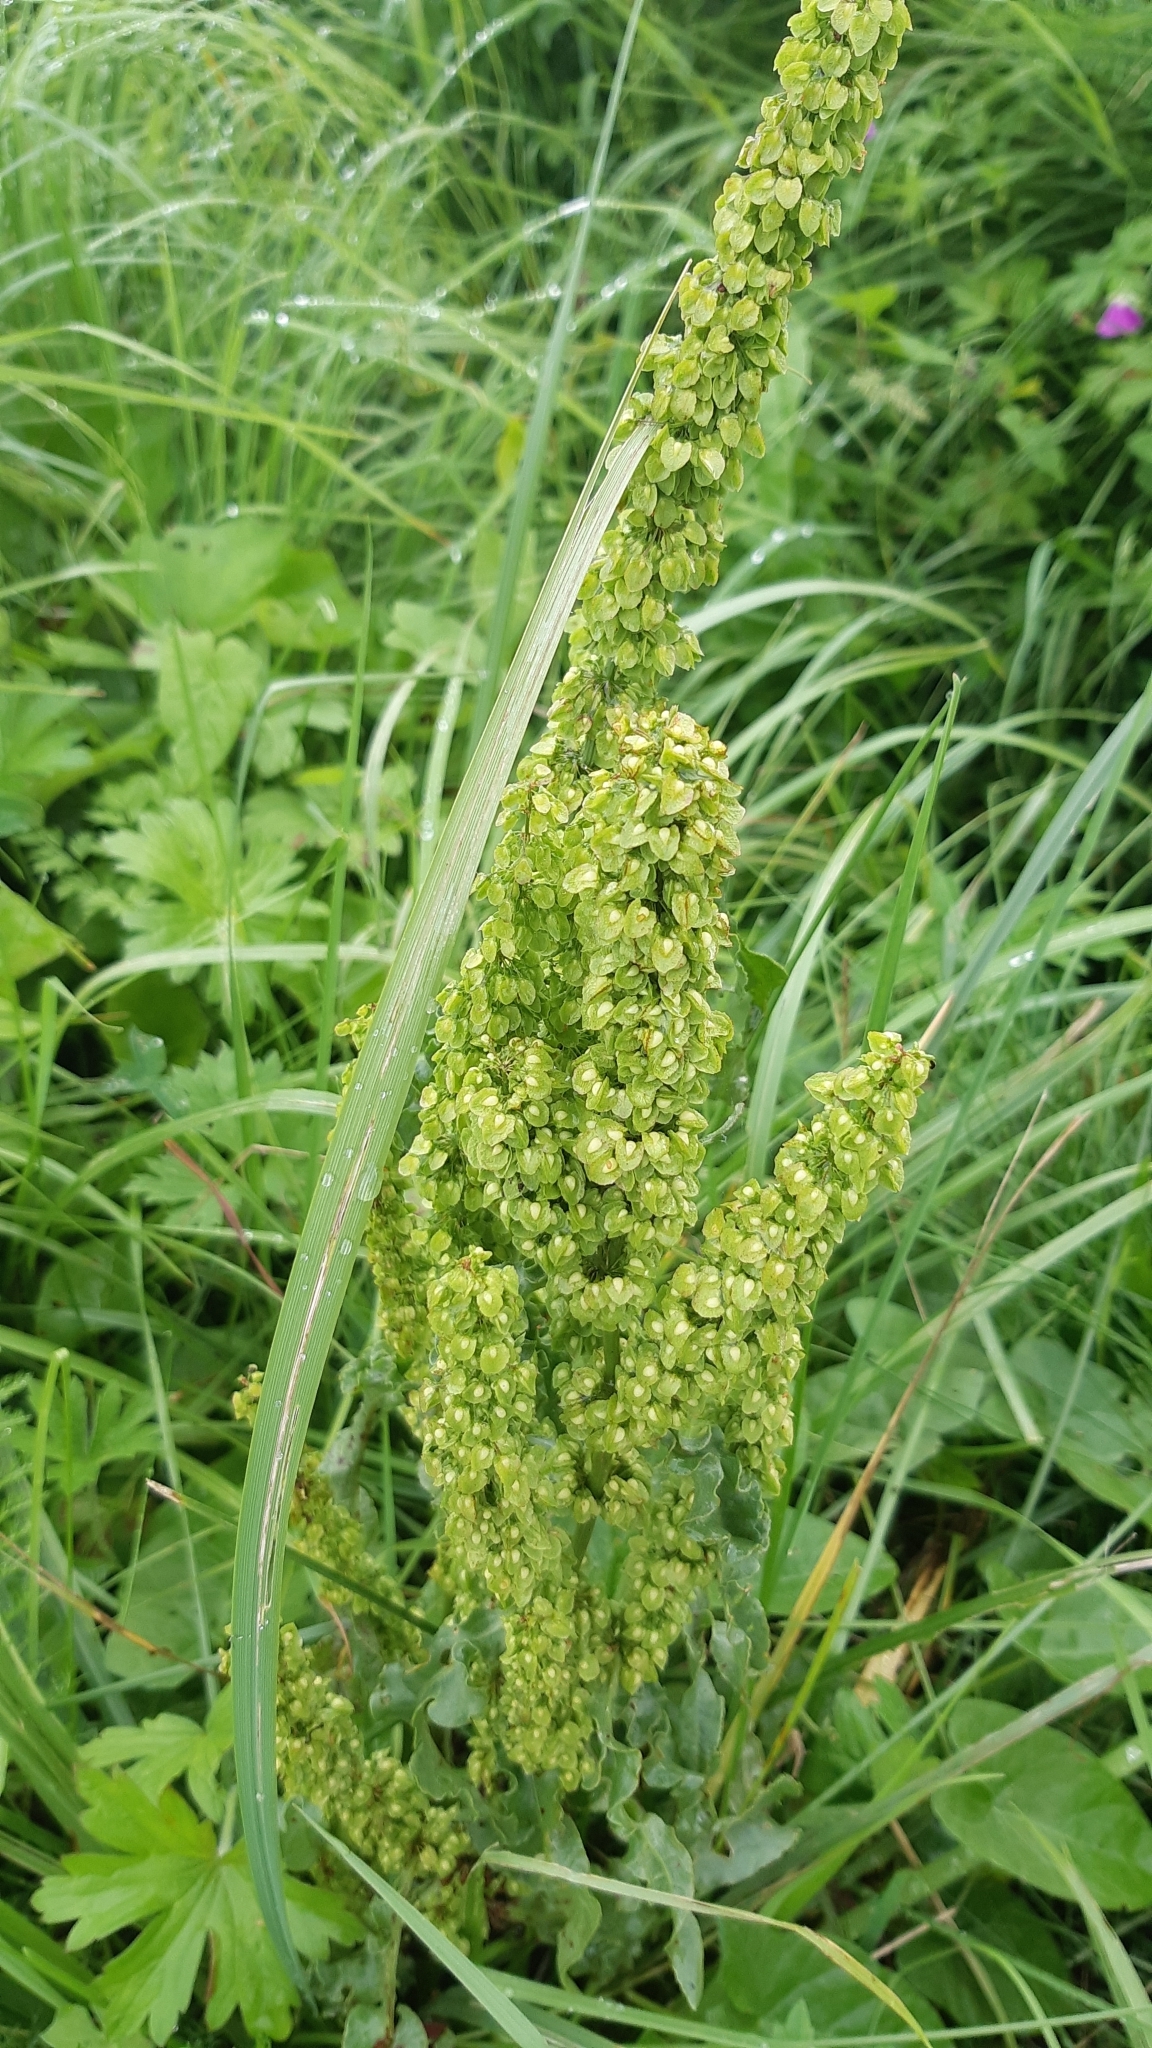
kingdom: Plantae
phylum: Tracheophyta
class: Magnoliopsida
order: Caryophyllales
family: Polygonaceae
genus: Rumex
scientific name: Rumex crispus
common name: Curled dock
